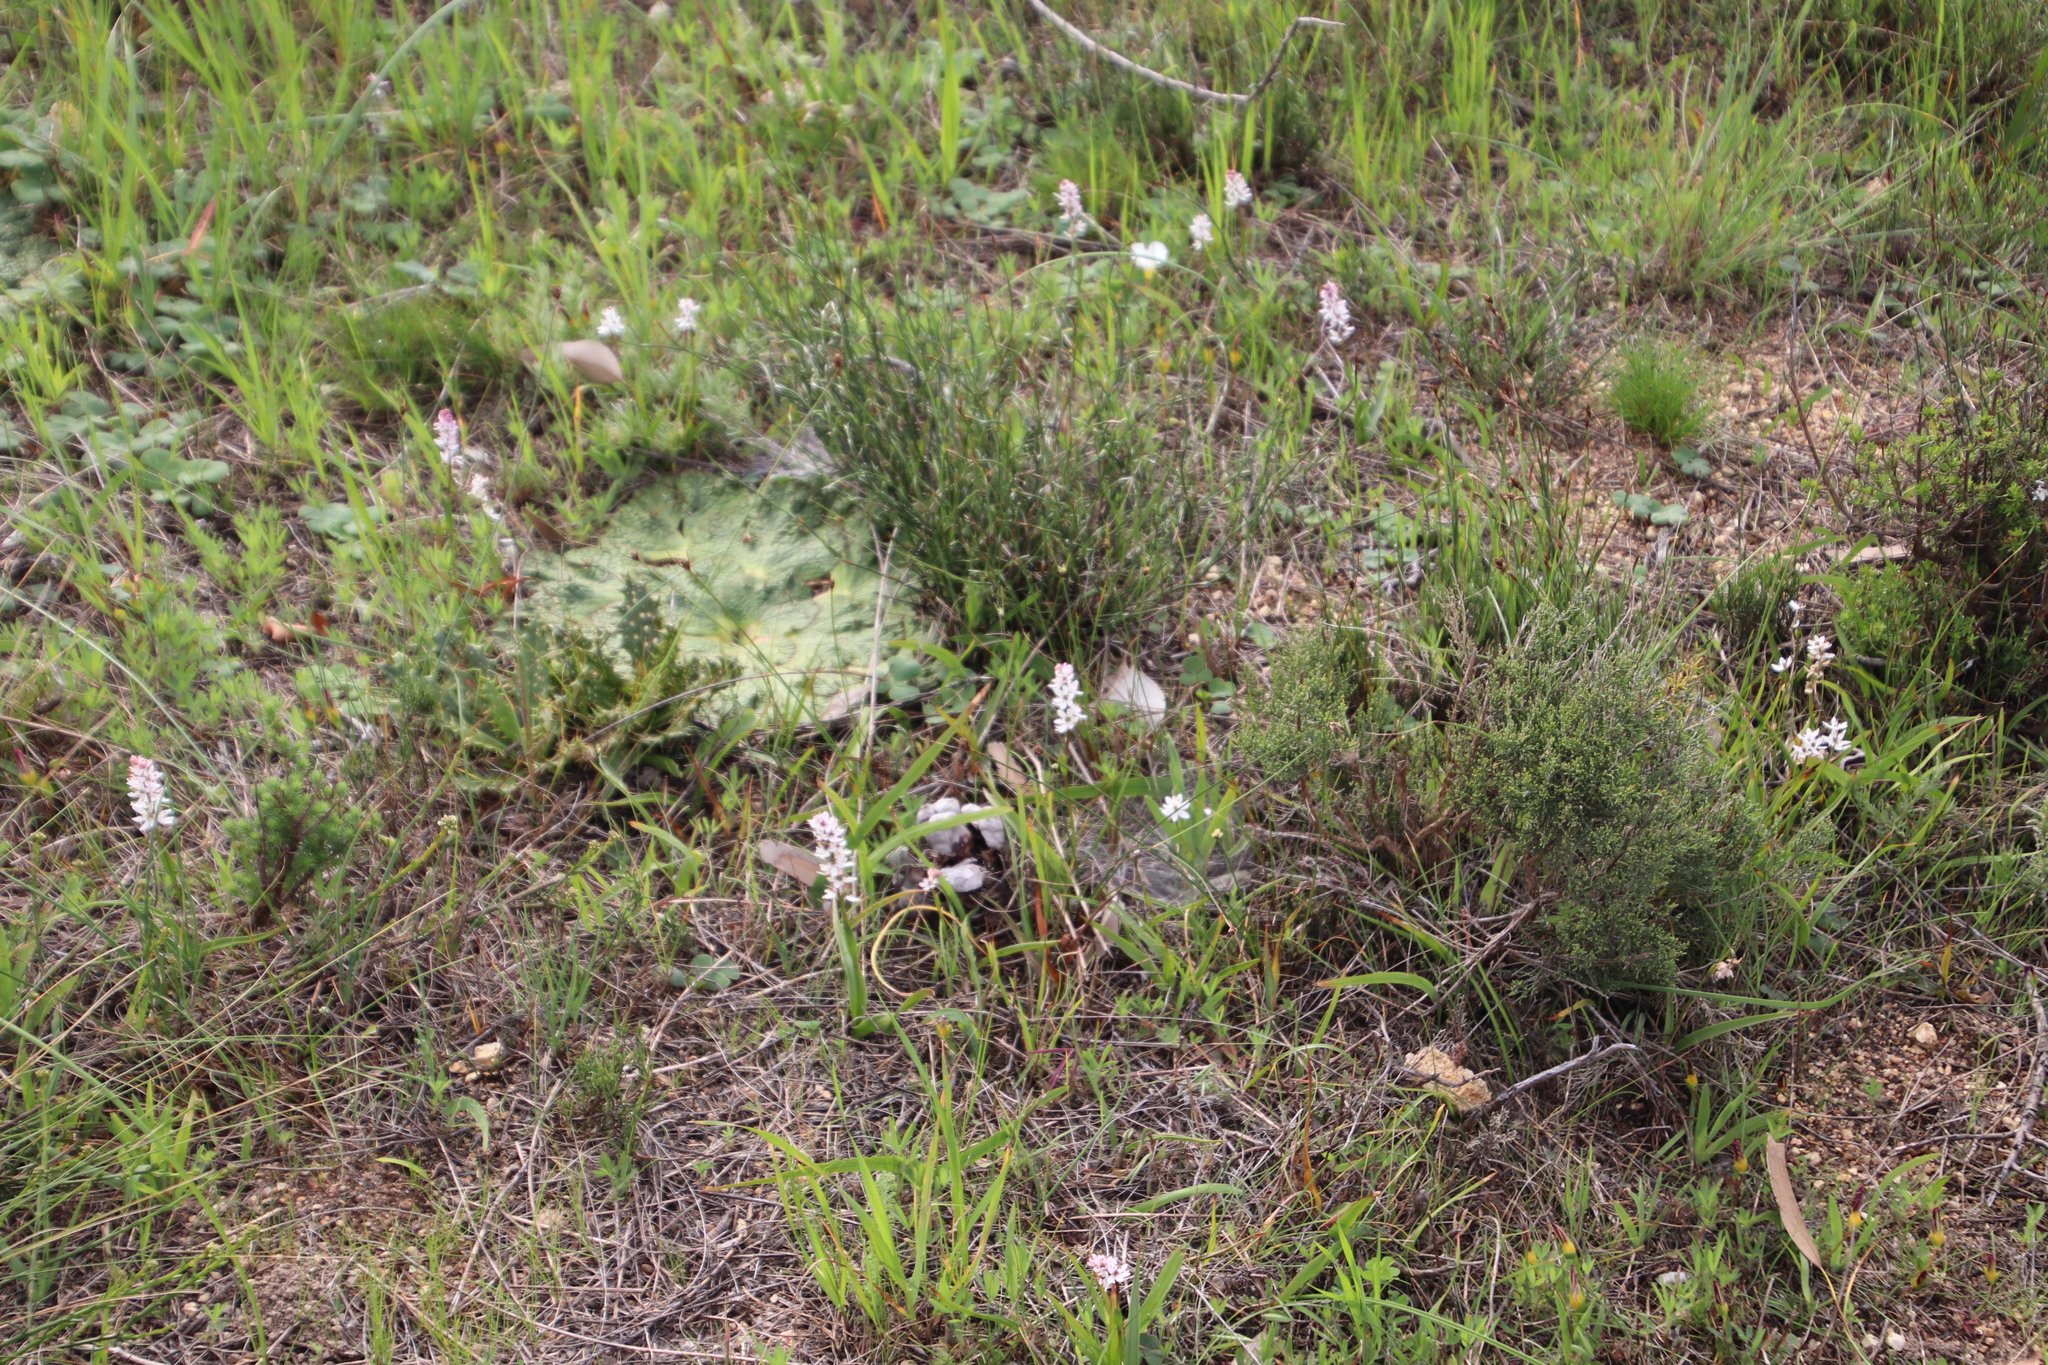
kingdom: Plantae
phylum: Tracheophyta
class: Liliopsida
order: Liliales
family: Colchicaceae
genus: Wurmbea
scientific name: Wurmbea punctata
